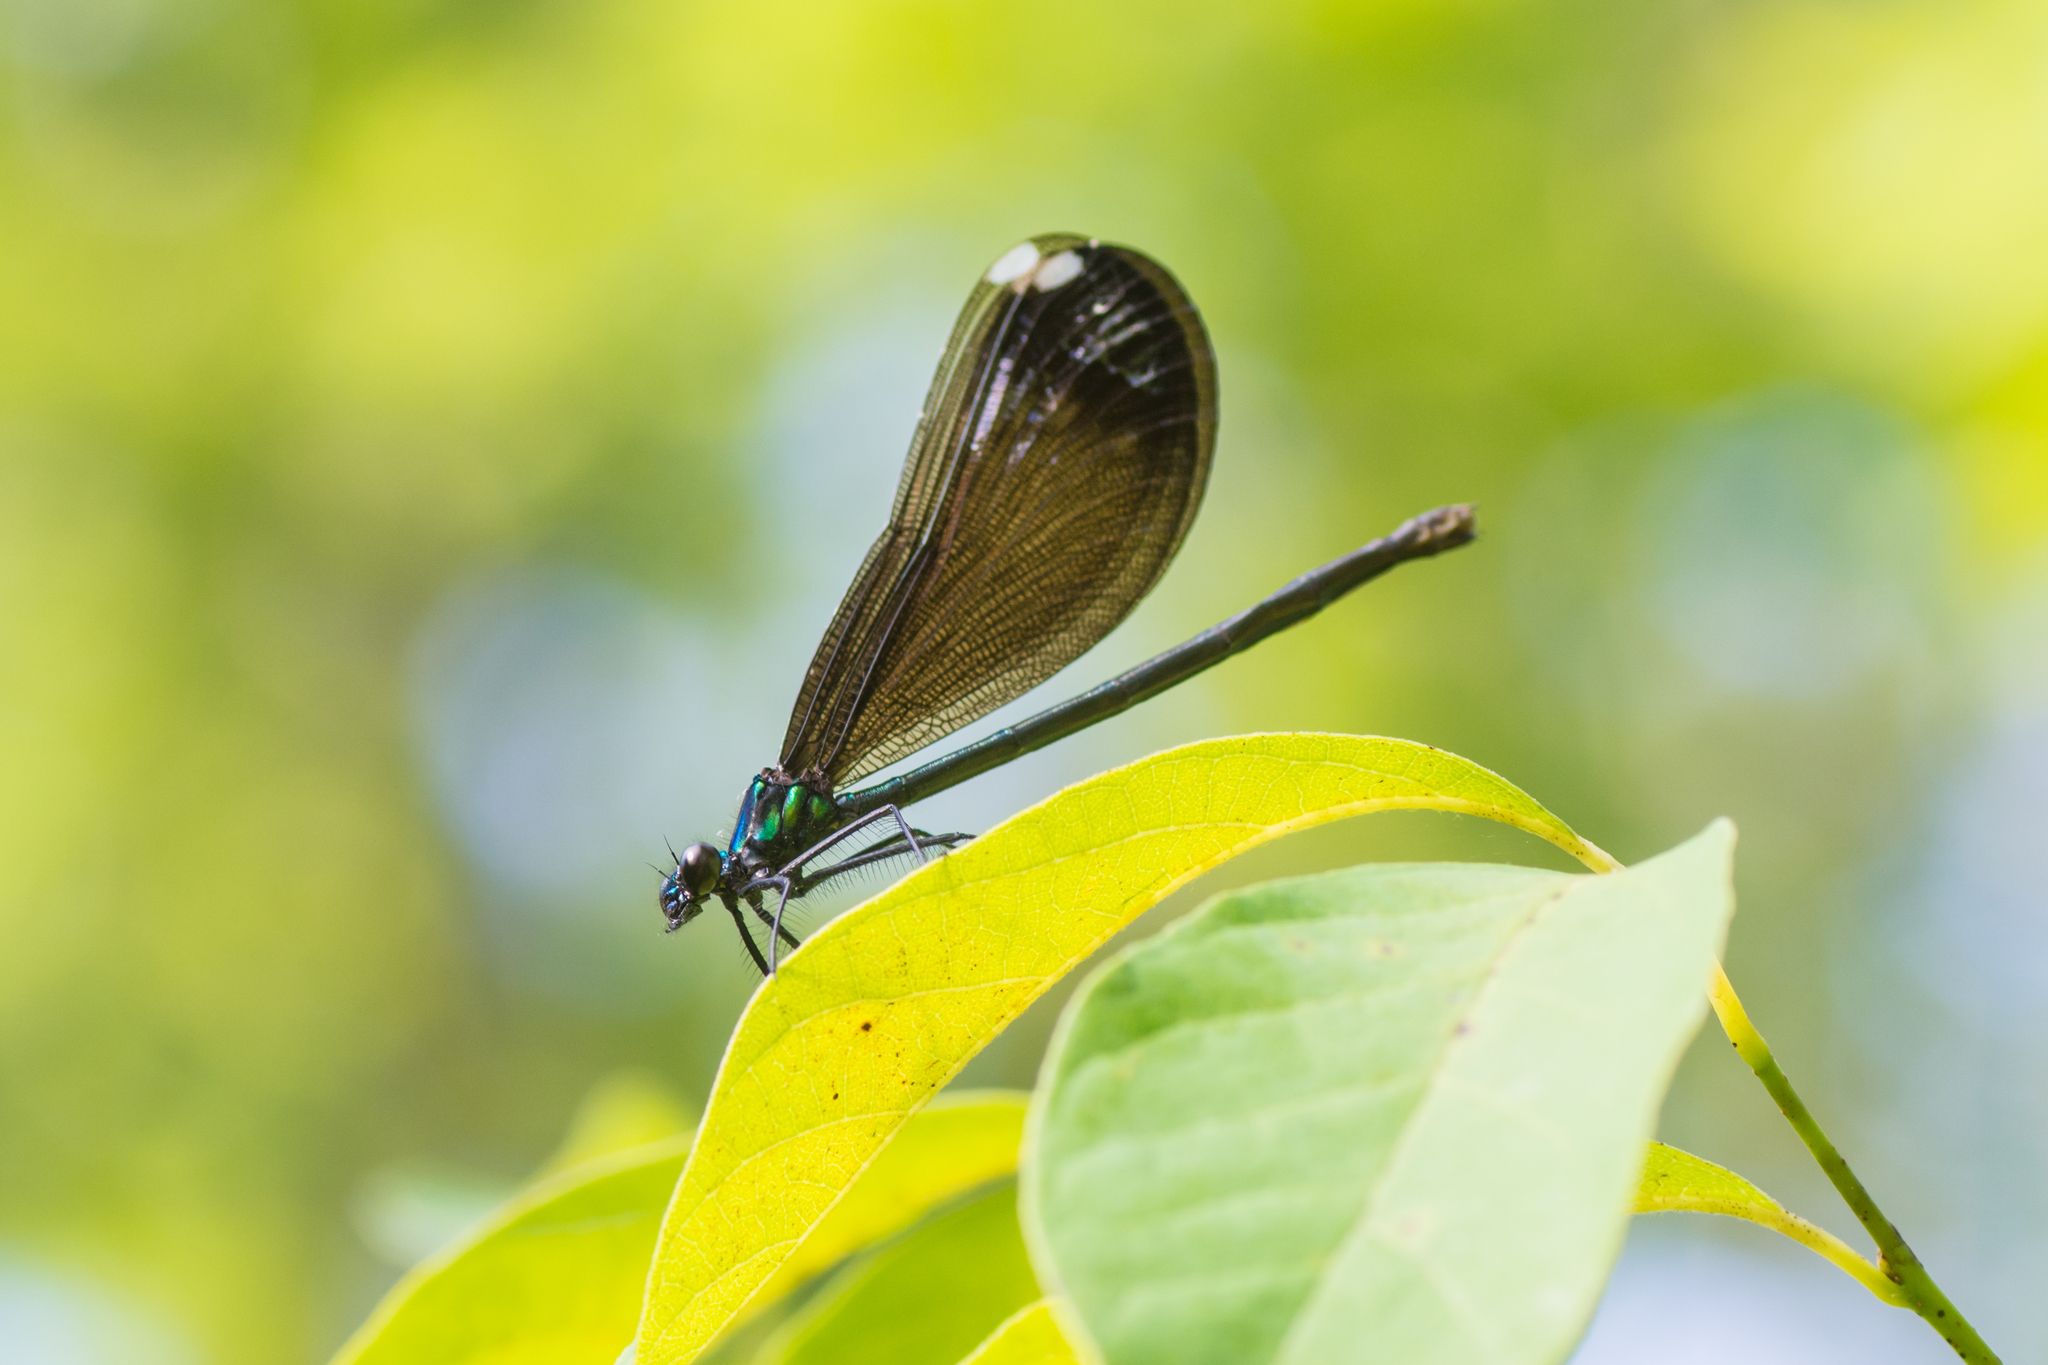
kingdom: Animalia
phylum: Arthropoda
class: Insecta
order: Odonata
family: Calopterygidae
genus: Calopteryx
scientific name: Calopteryx maculata
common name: Ebony jewelwing
